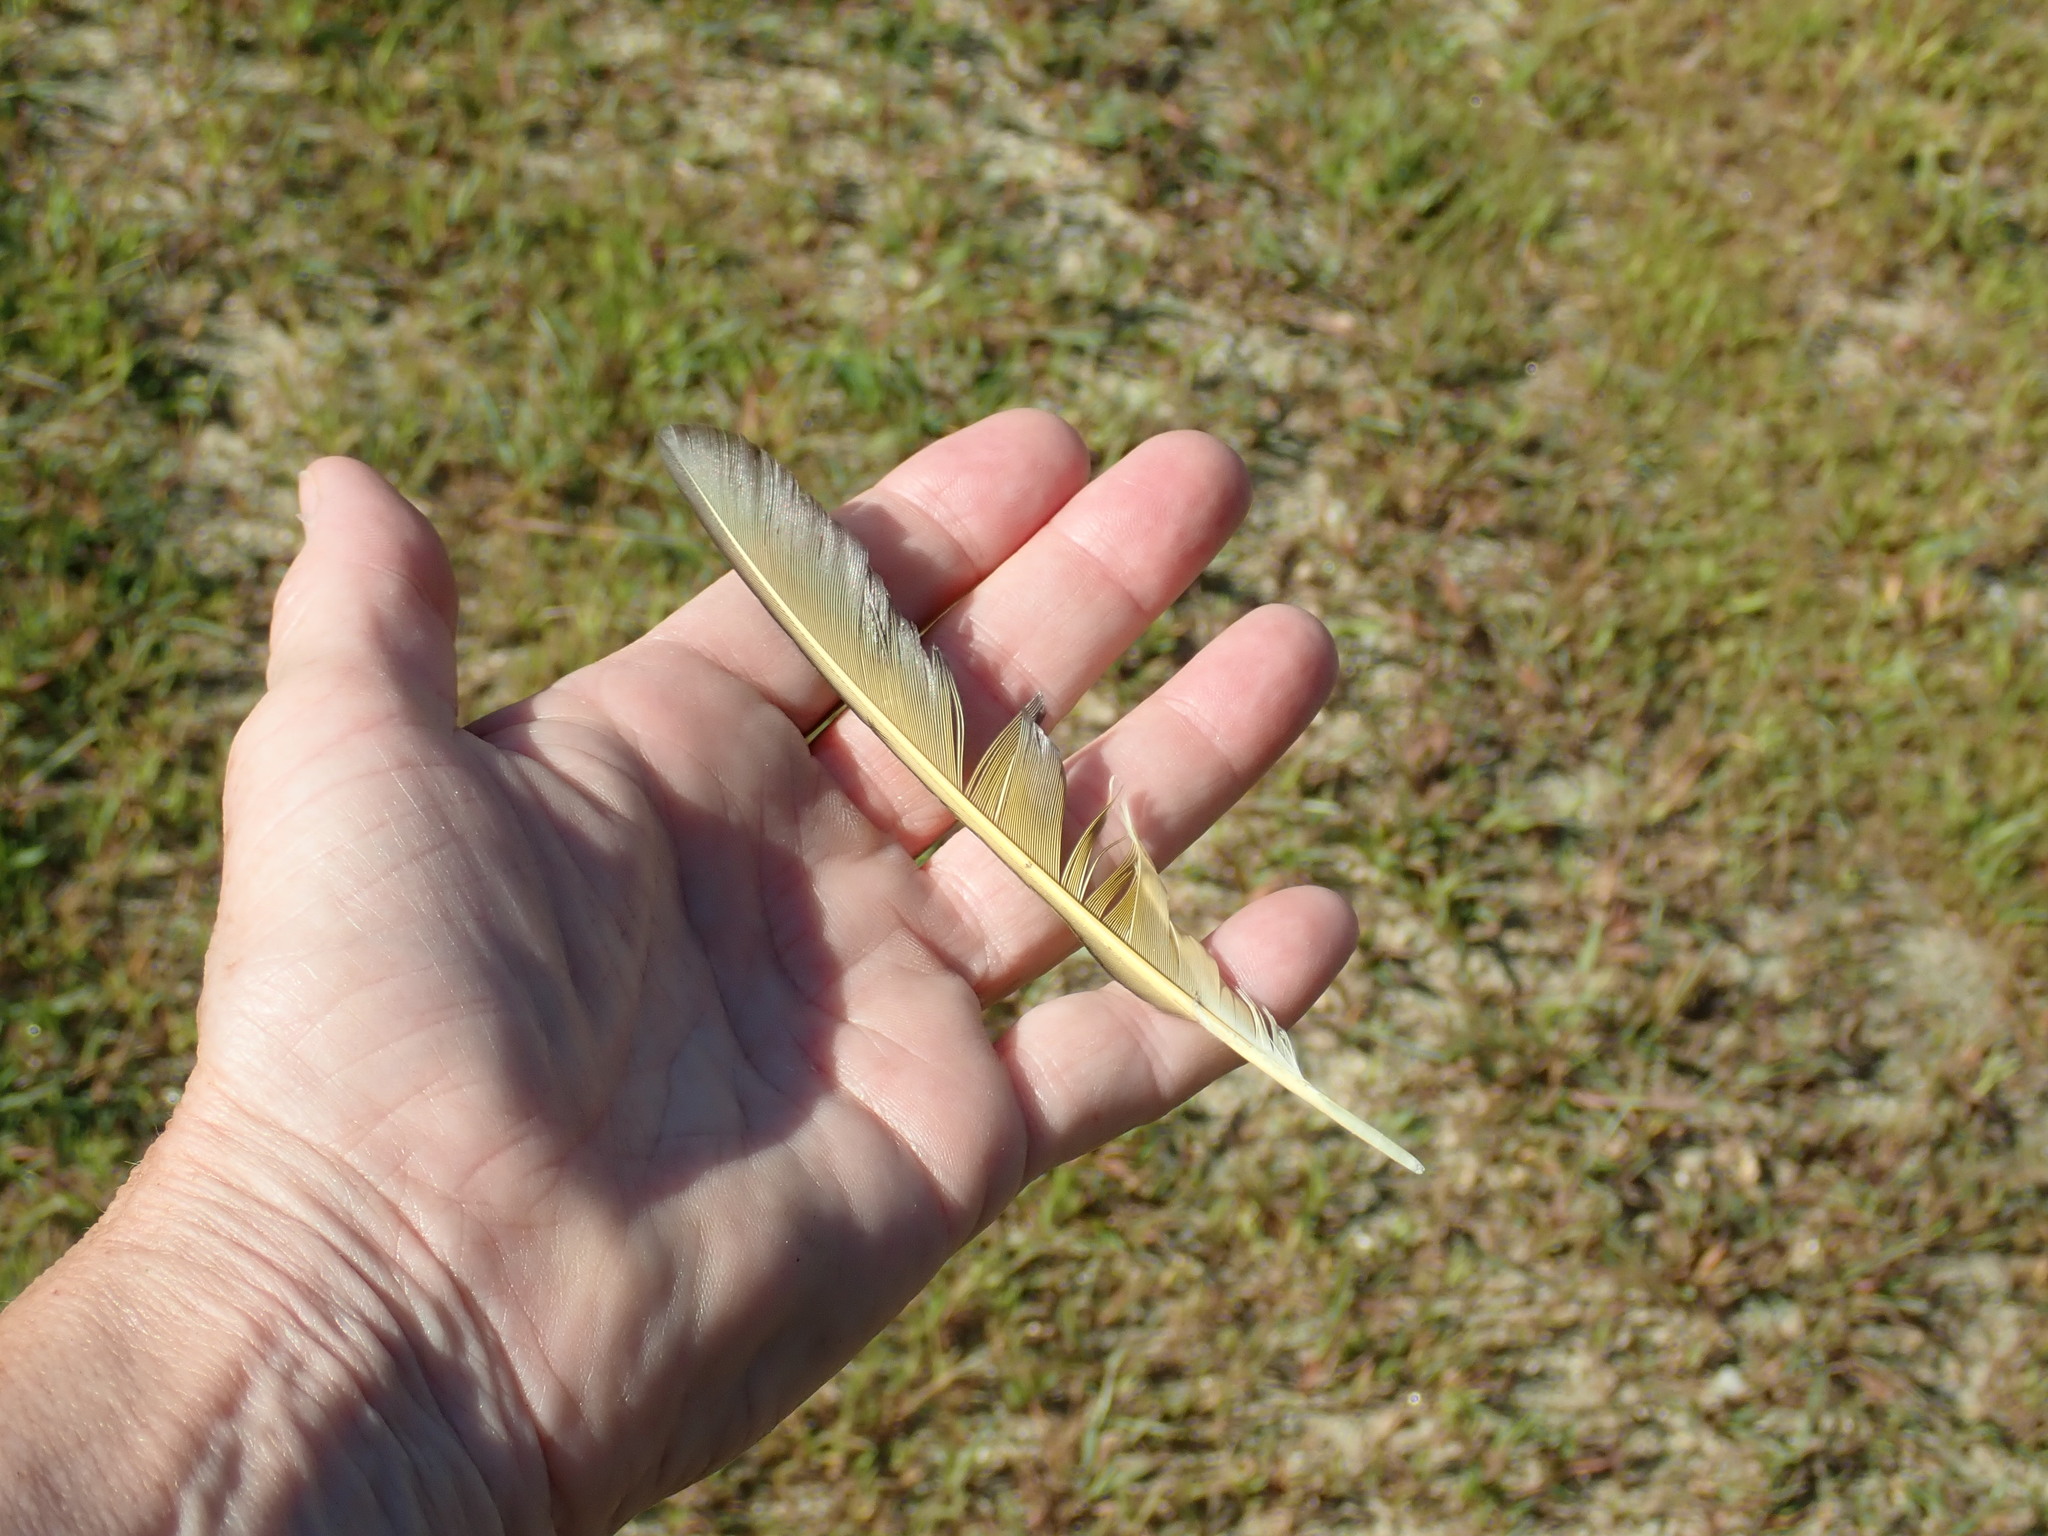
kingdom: Animalia
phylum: Chordata
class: Aves
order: Piciformes
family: Picidae
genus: Colaptes
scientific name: Colaptes auratus
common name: Northern flicker
